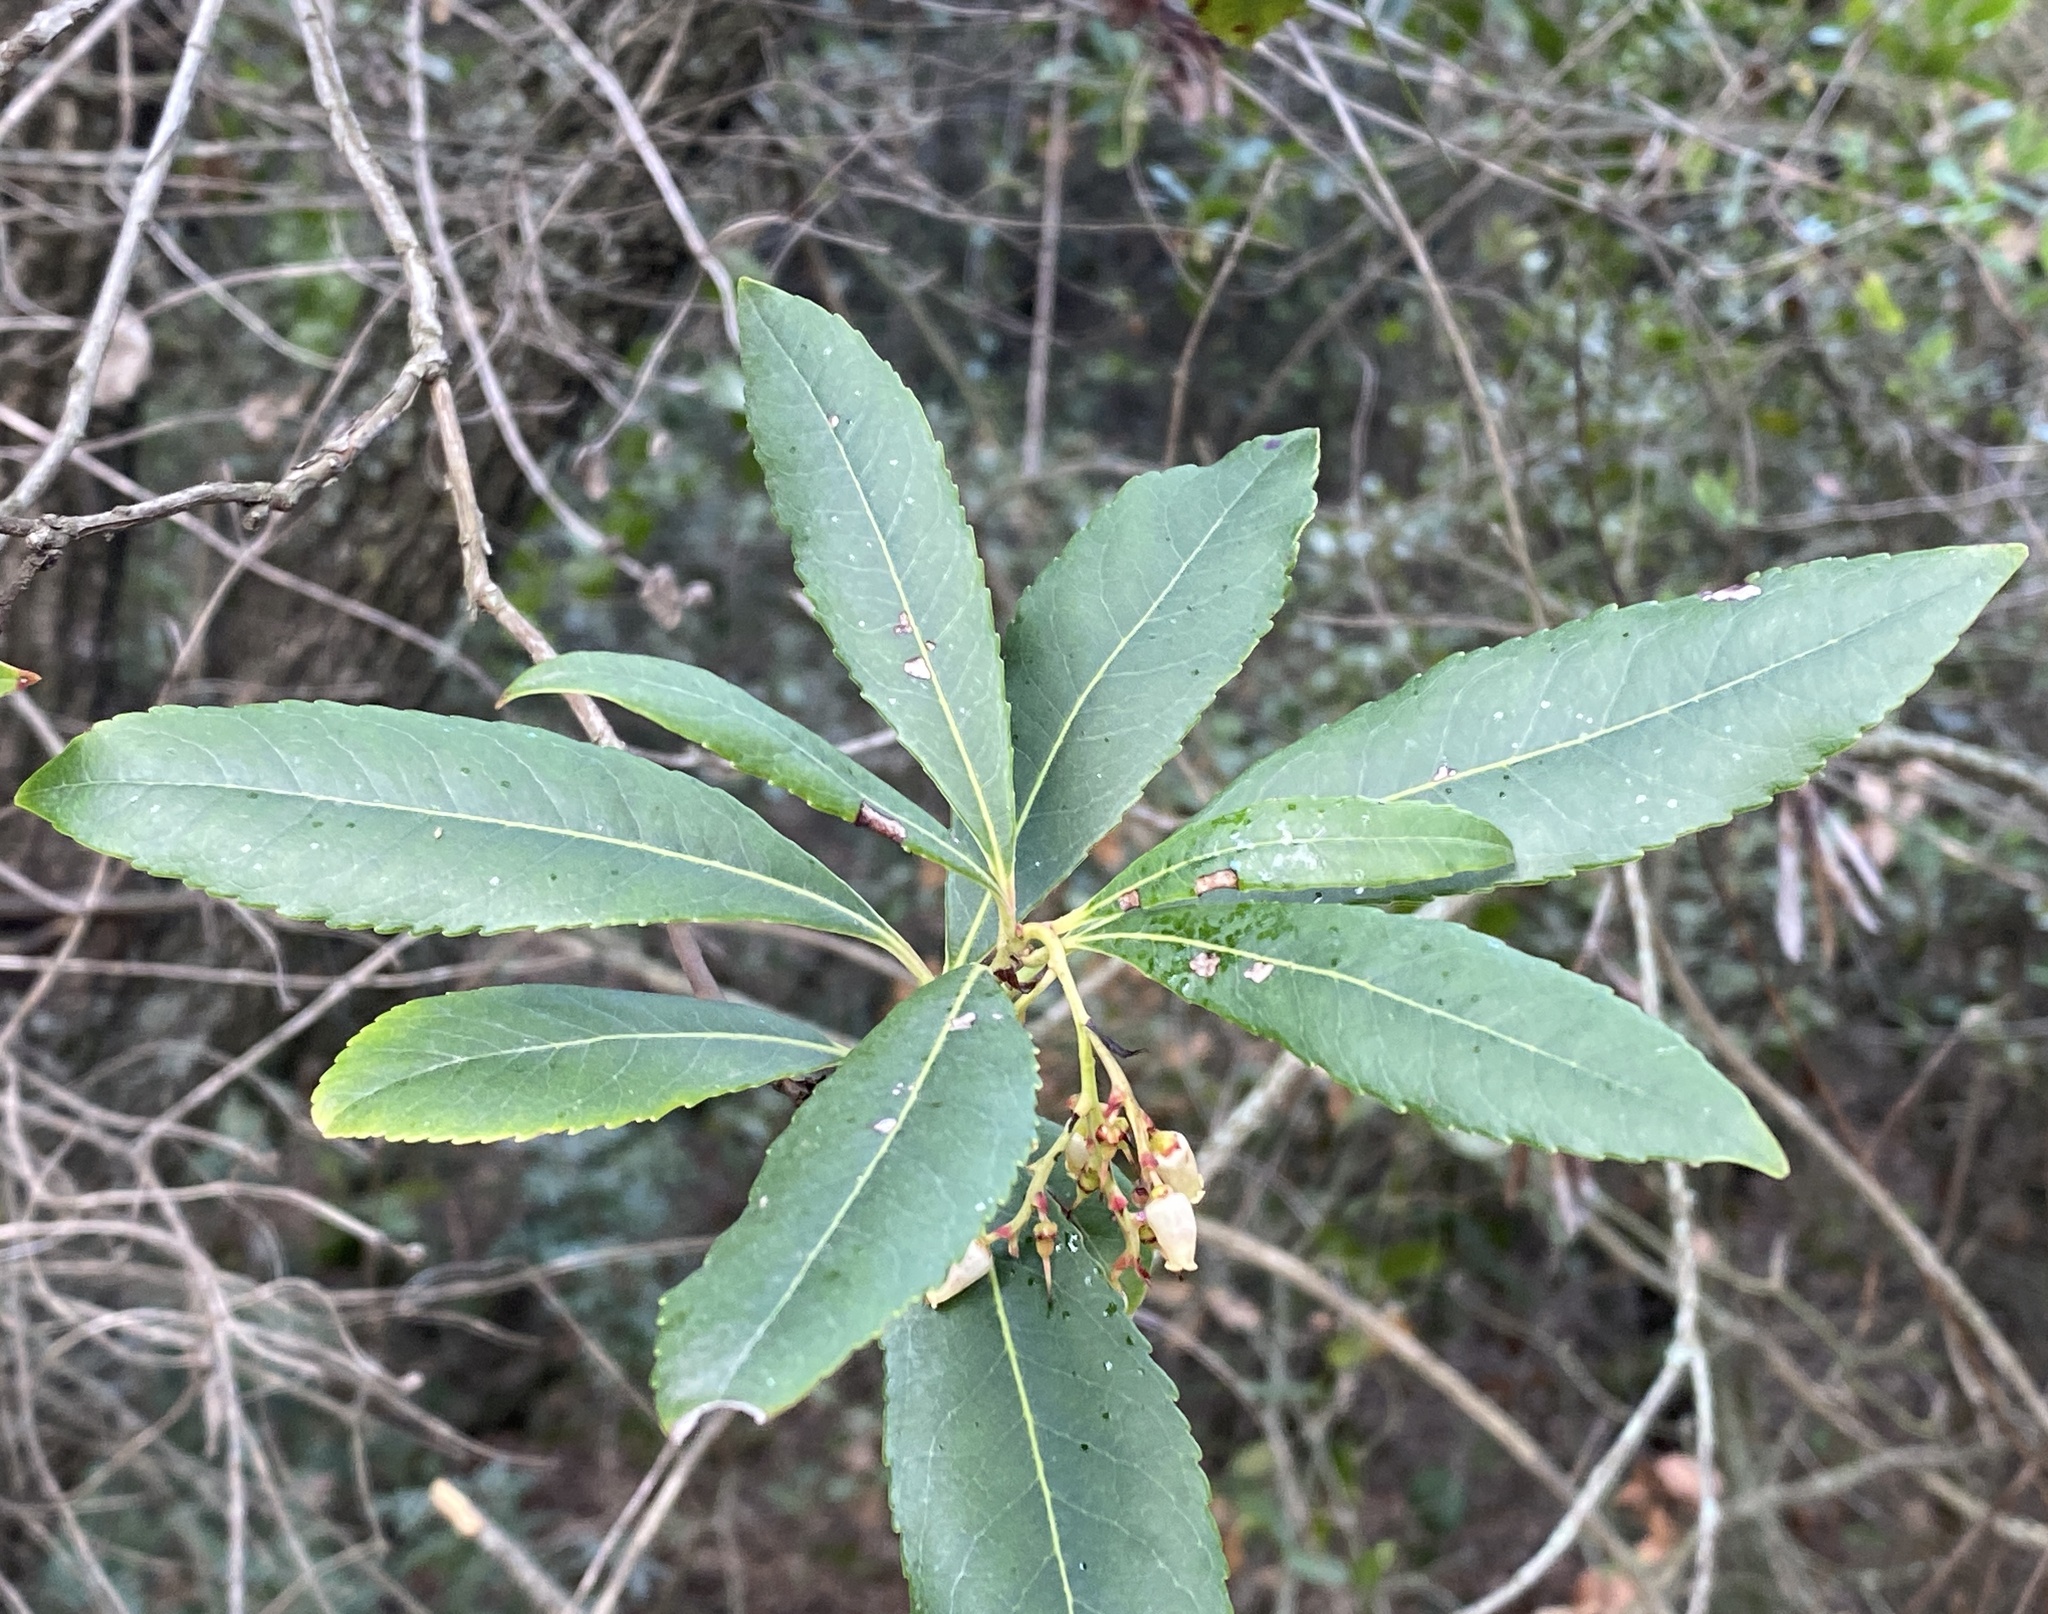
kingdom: Plantae
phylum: Tracheophyta
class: Magnoliopsida
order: Ericales
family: Ericaceae
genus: Arbutus
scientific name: Arbutus unedo
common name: Strawberry-tree
